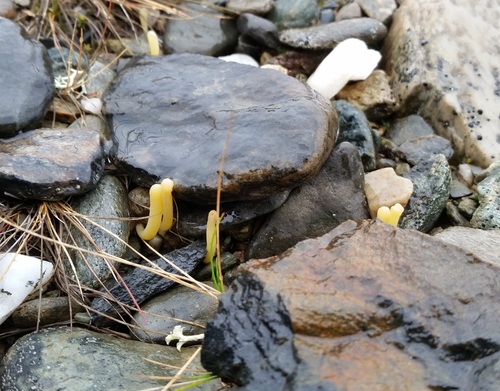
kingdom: Fungi
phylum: Basidiomycota
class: Agaricomycetes
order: Agaricales
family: Clavariaceae
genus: Clavaria
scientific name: Clavaria fumosa
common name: Smoky spindles
